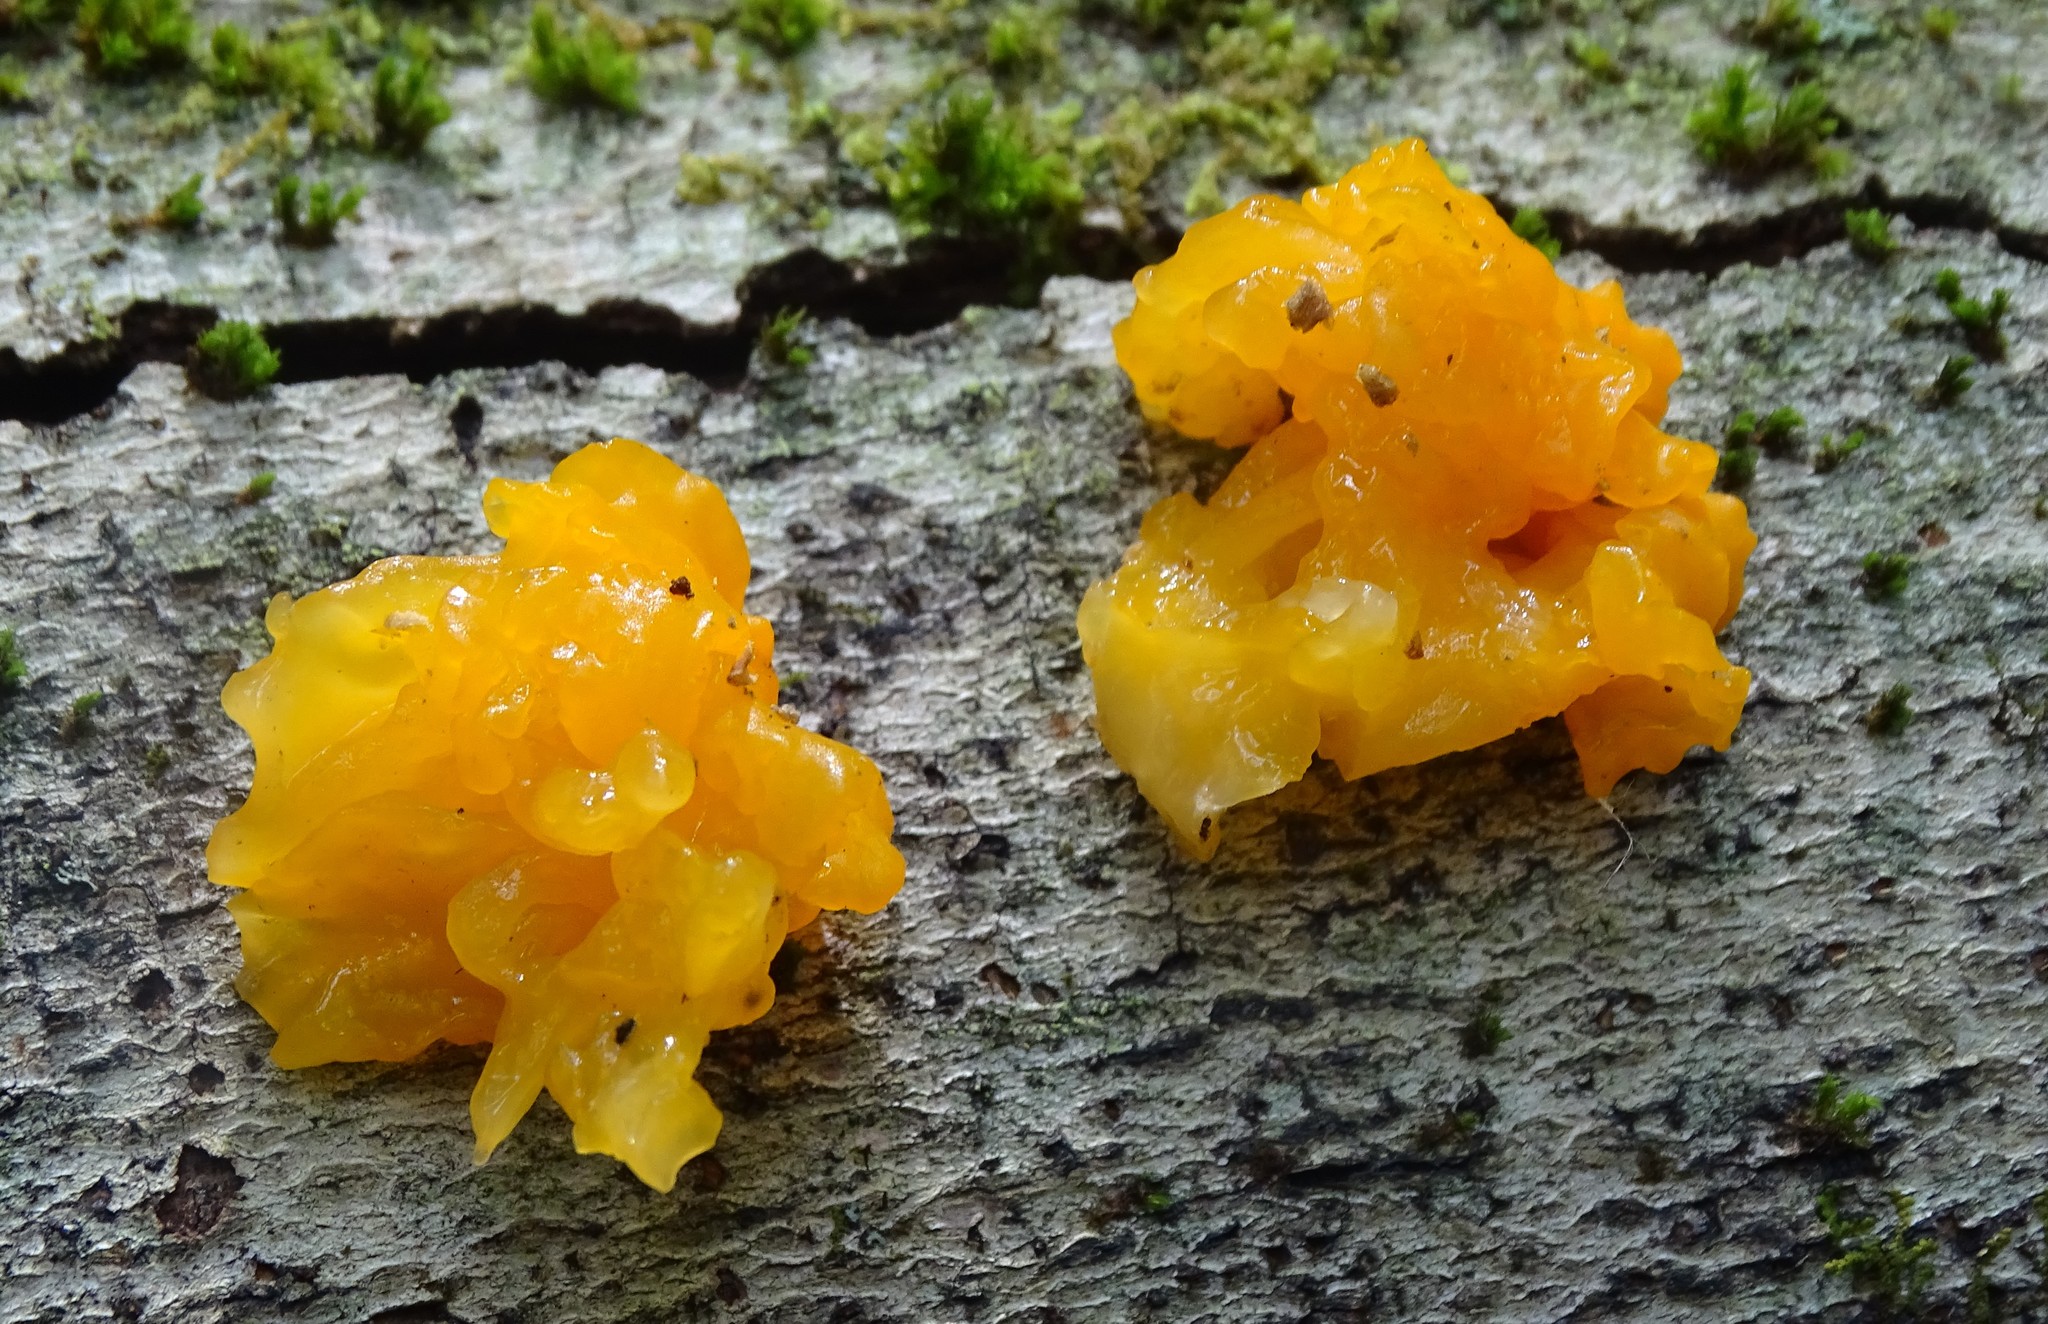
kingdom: Fungi
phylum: Basidiomycota
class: Tremellomycetes
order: Tremellales
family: Tremellaceae
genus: Tremella
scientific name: Tremella mesenterica
